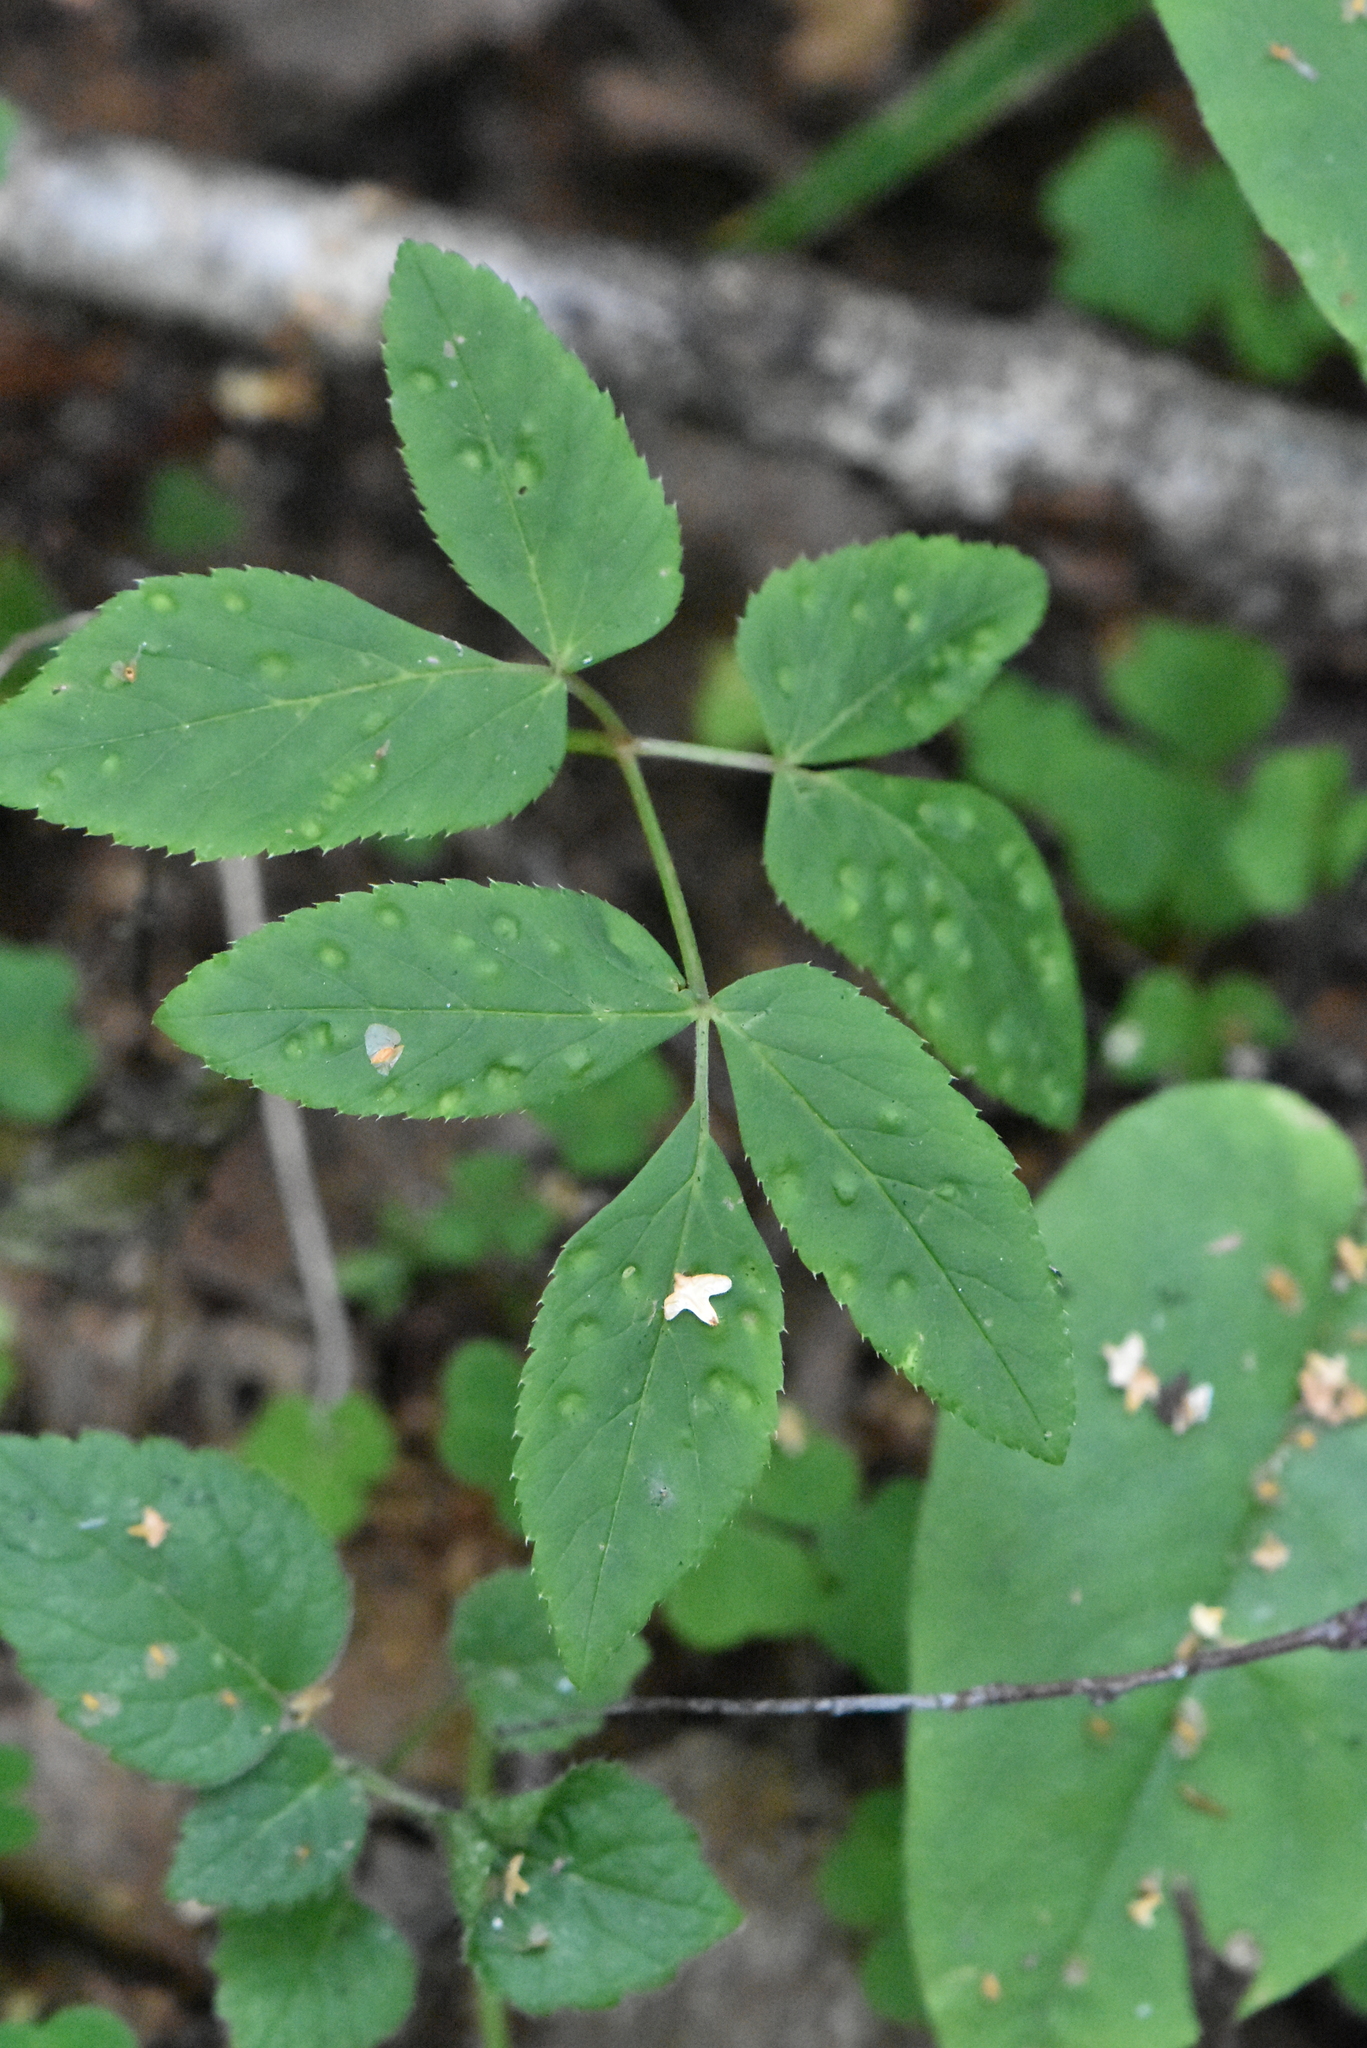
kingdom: Plantae
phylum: Tracheophyta
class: Magnoliopsida
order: Apiales
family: Apiaceae
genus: Aegopodium
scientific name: Aegopodium podagraria
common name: Ground-elder
